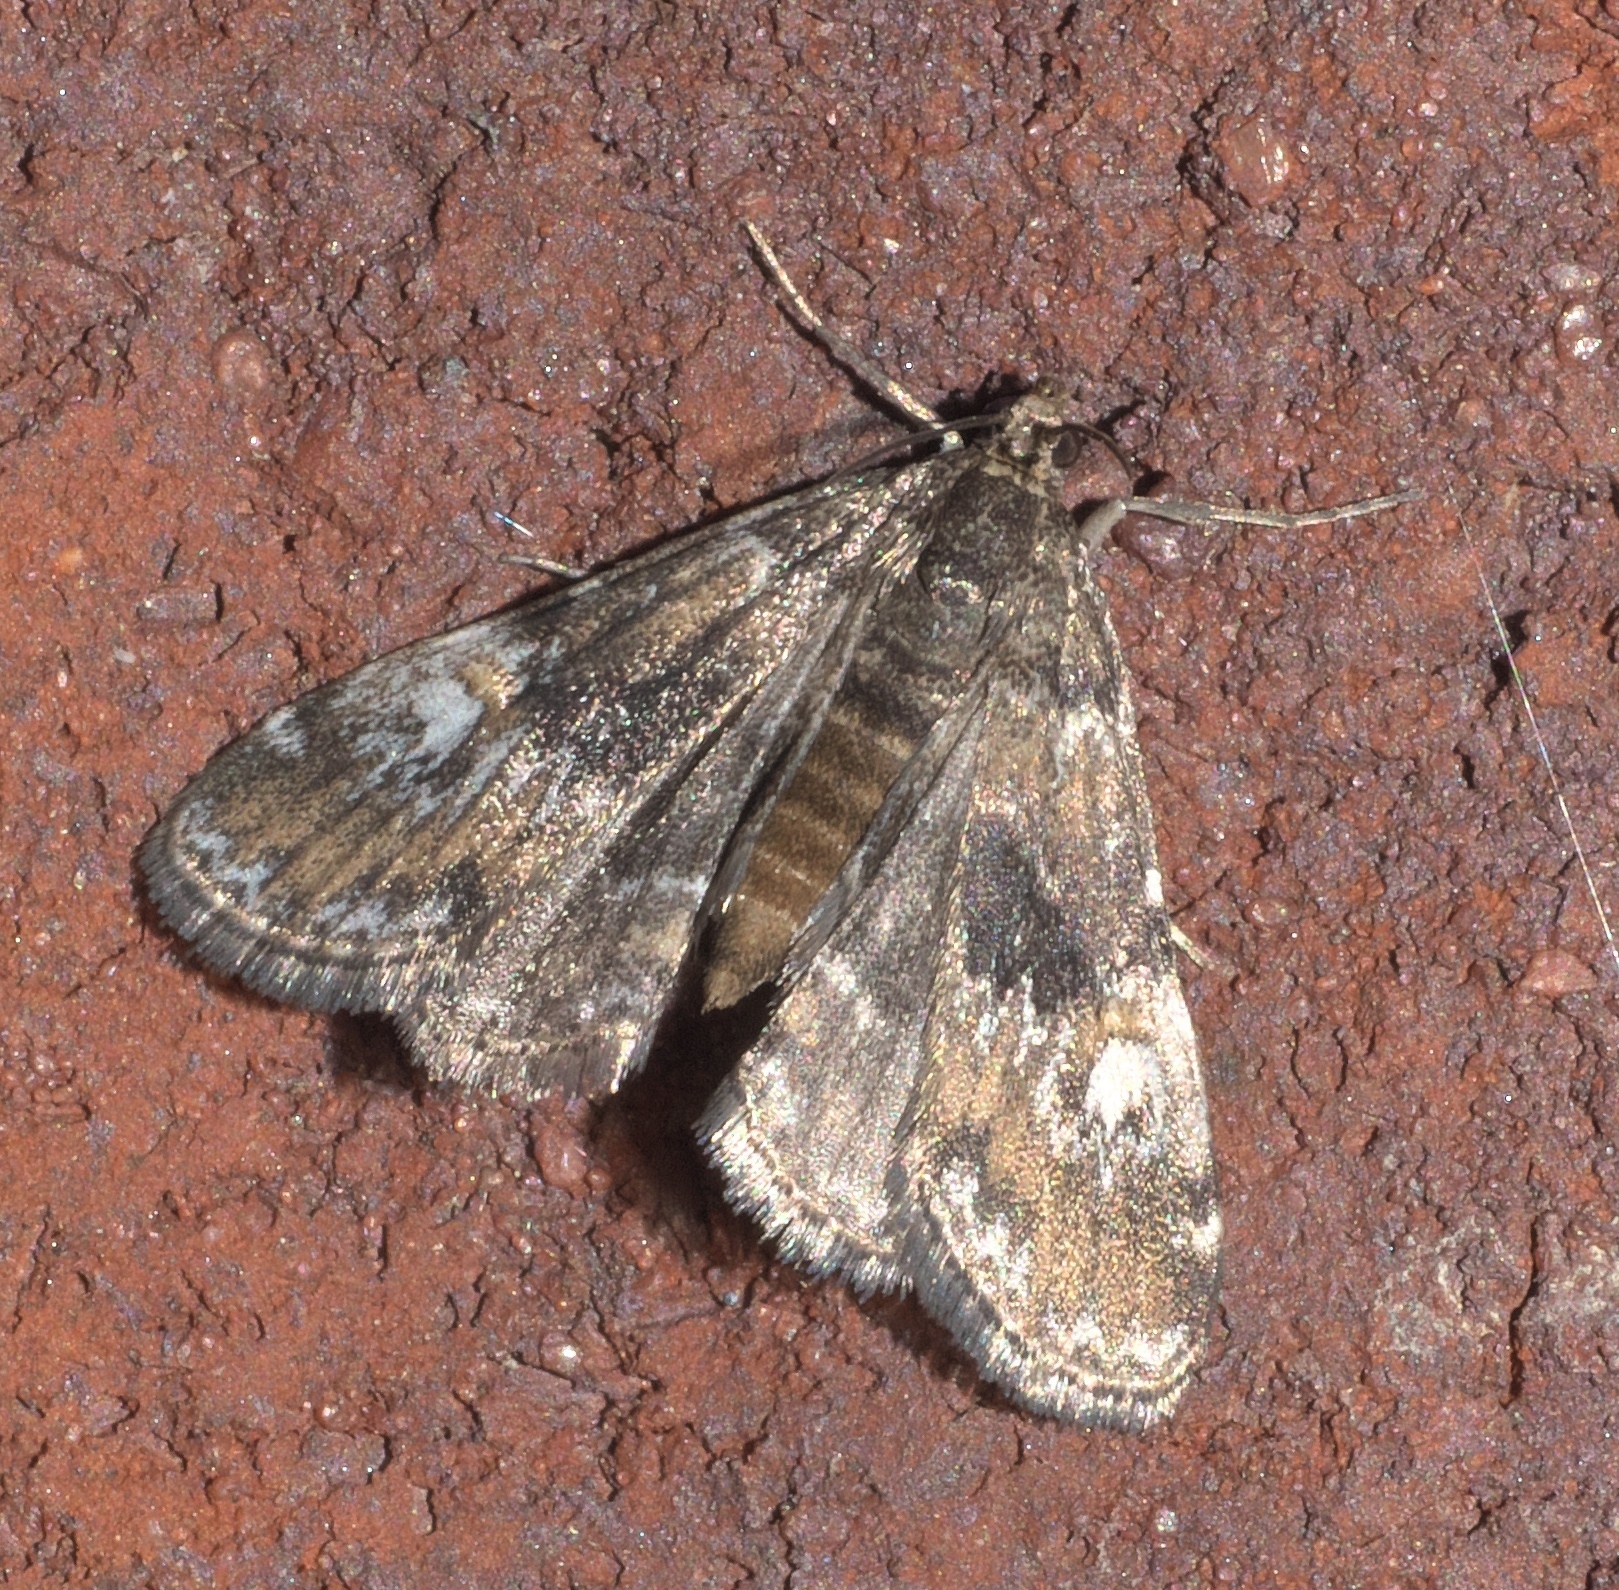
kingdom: Animalia
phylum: Arthropoda
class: Insecta
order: Lepidoptera
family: Crambidae
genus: Elophila
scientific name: Elophila obliteralis
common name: Waterlily leafcutter moth
